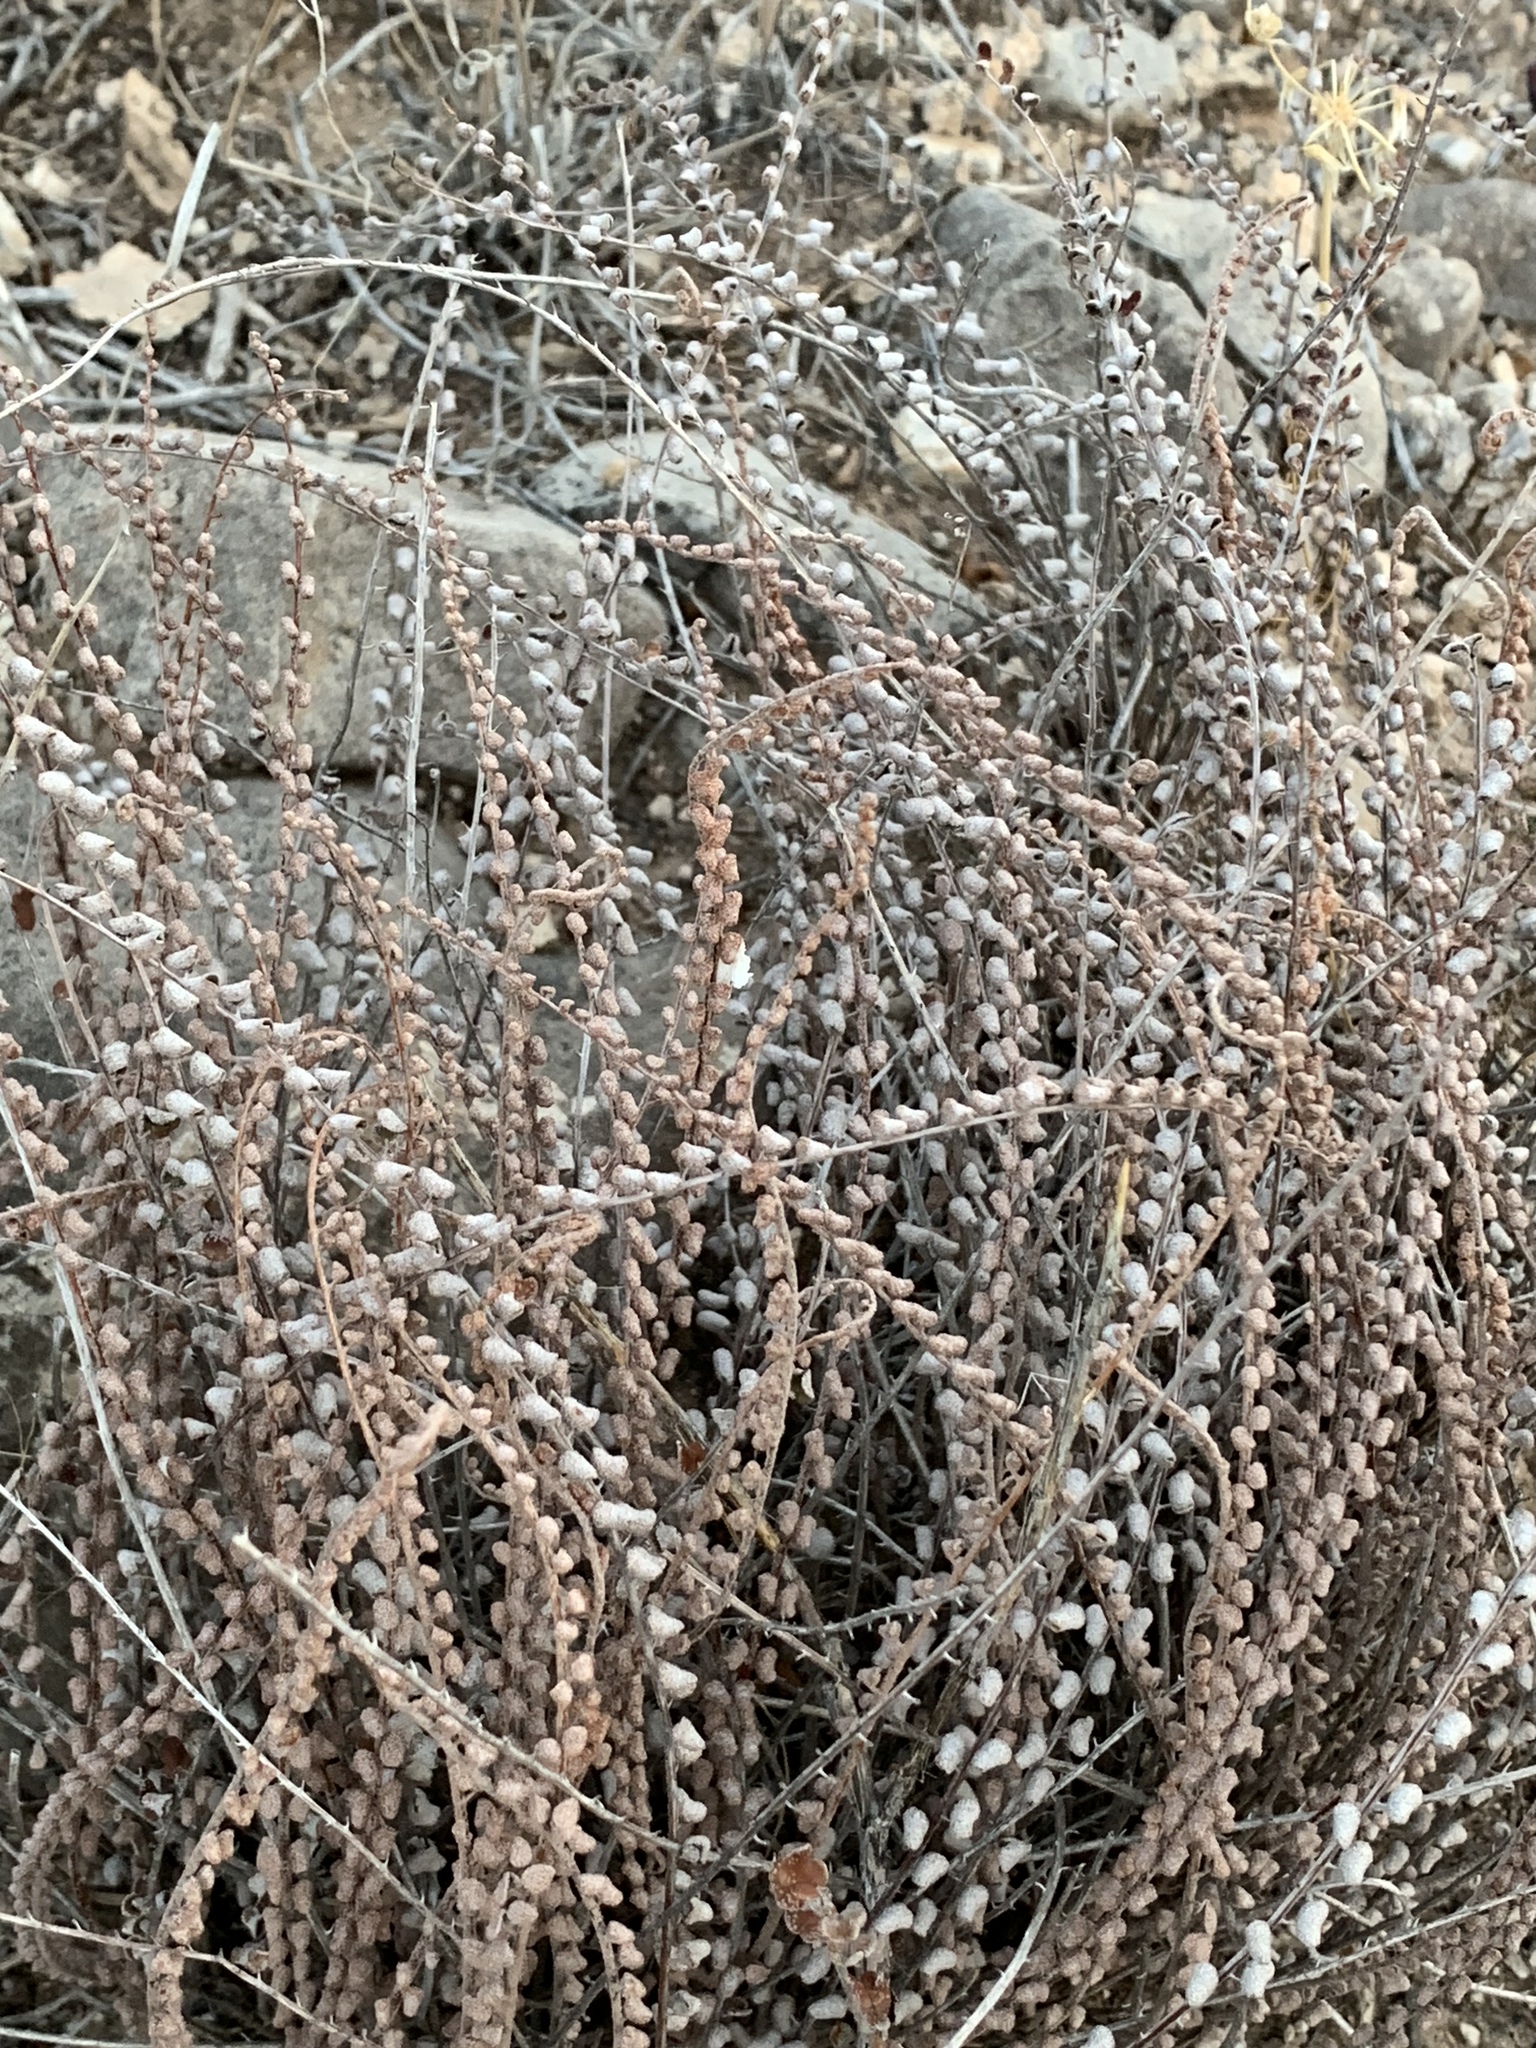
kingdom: Plantae
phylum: Tracheophyta
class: Polypodiopsida
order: Polypodiales
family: Pteridaceae
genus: Astrolepis
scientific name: Astrolepis cochisensis
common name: Scaly cloak fern
